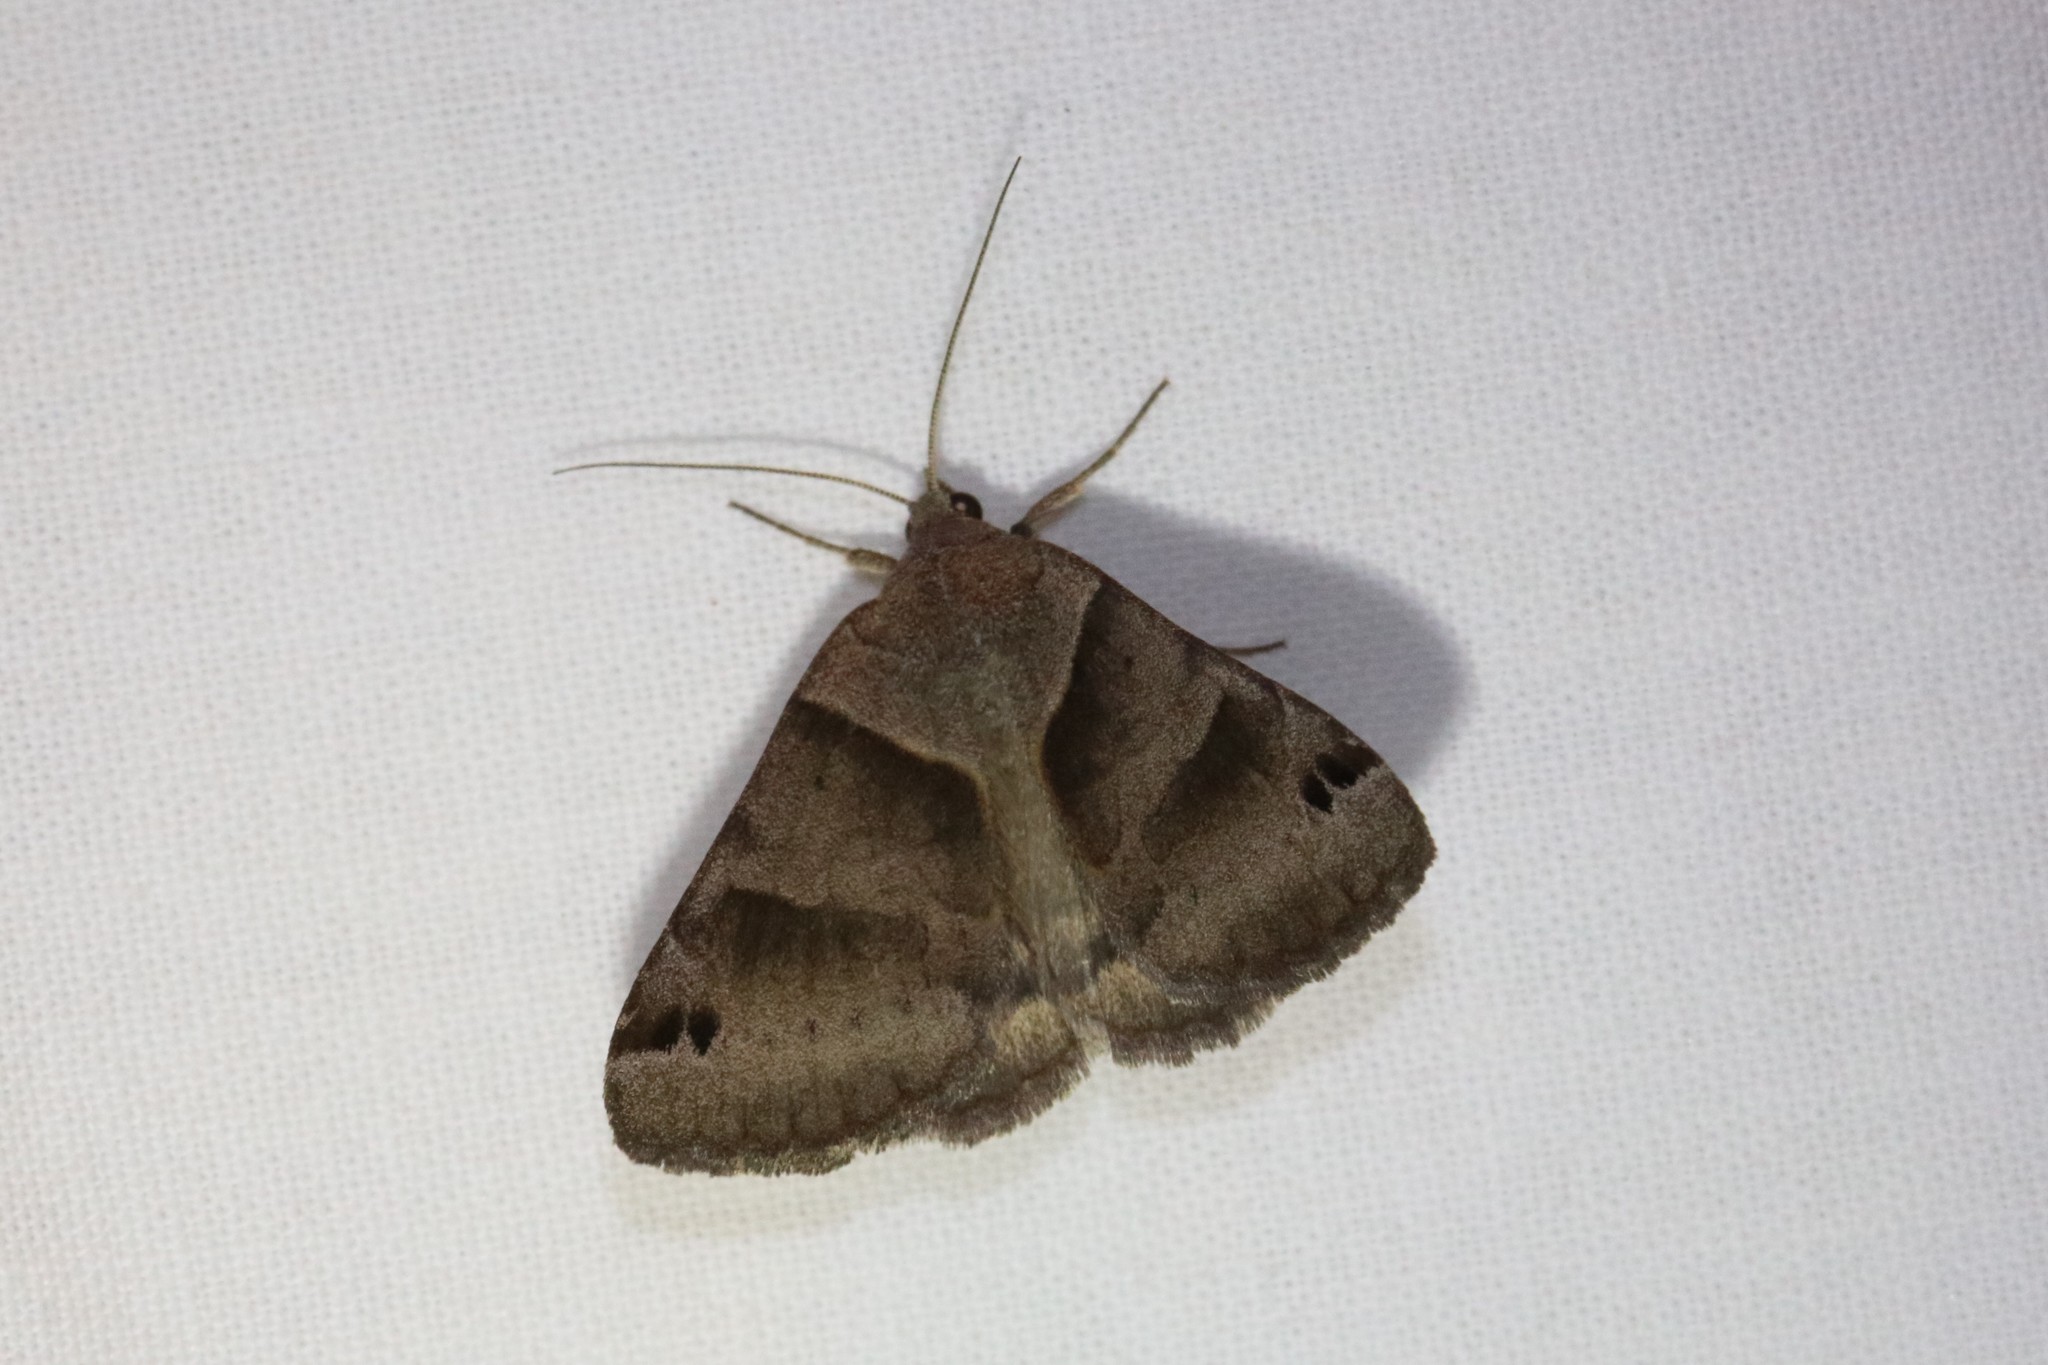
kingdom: Animalia
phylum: Arthropoda
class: Insecta
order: Lepidoptera
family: Erebidae
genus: Caenurgina
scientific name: Caenurgina crassiuscula
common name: Double-barred
